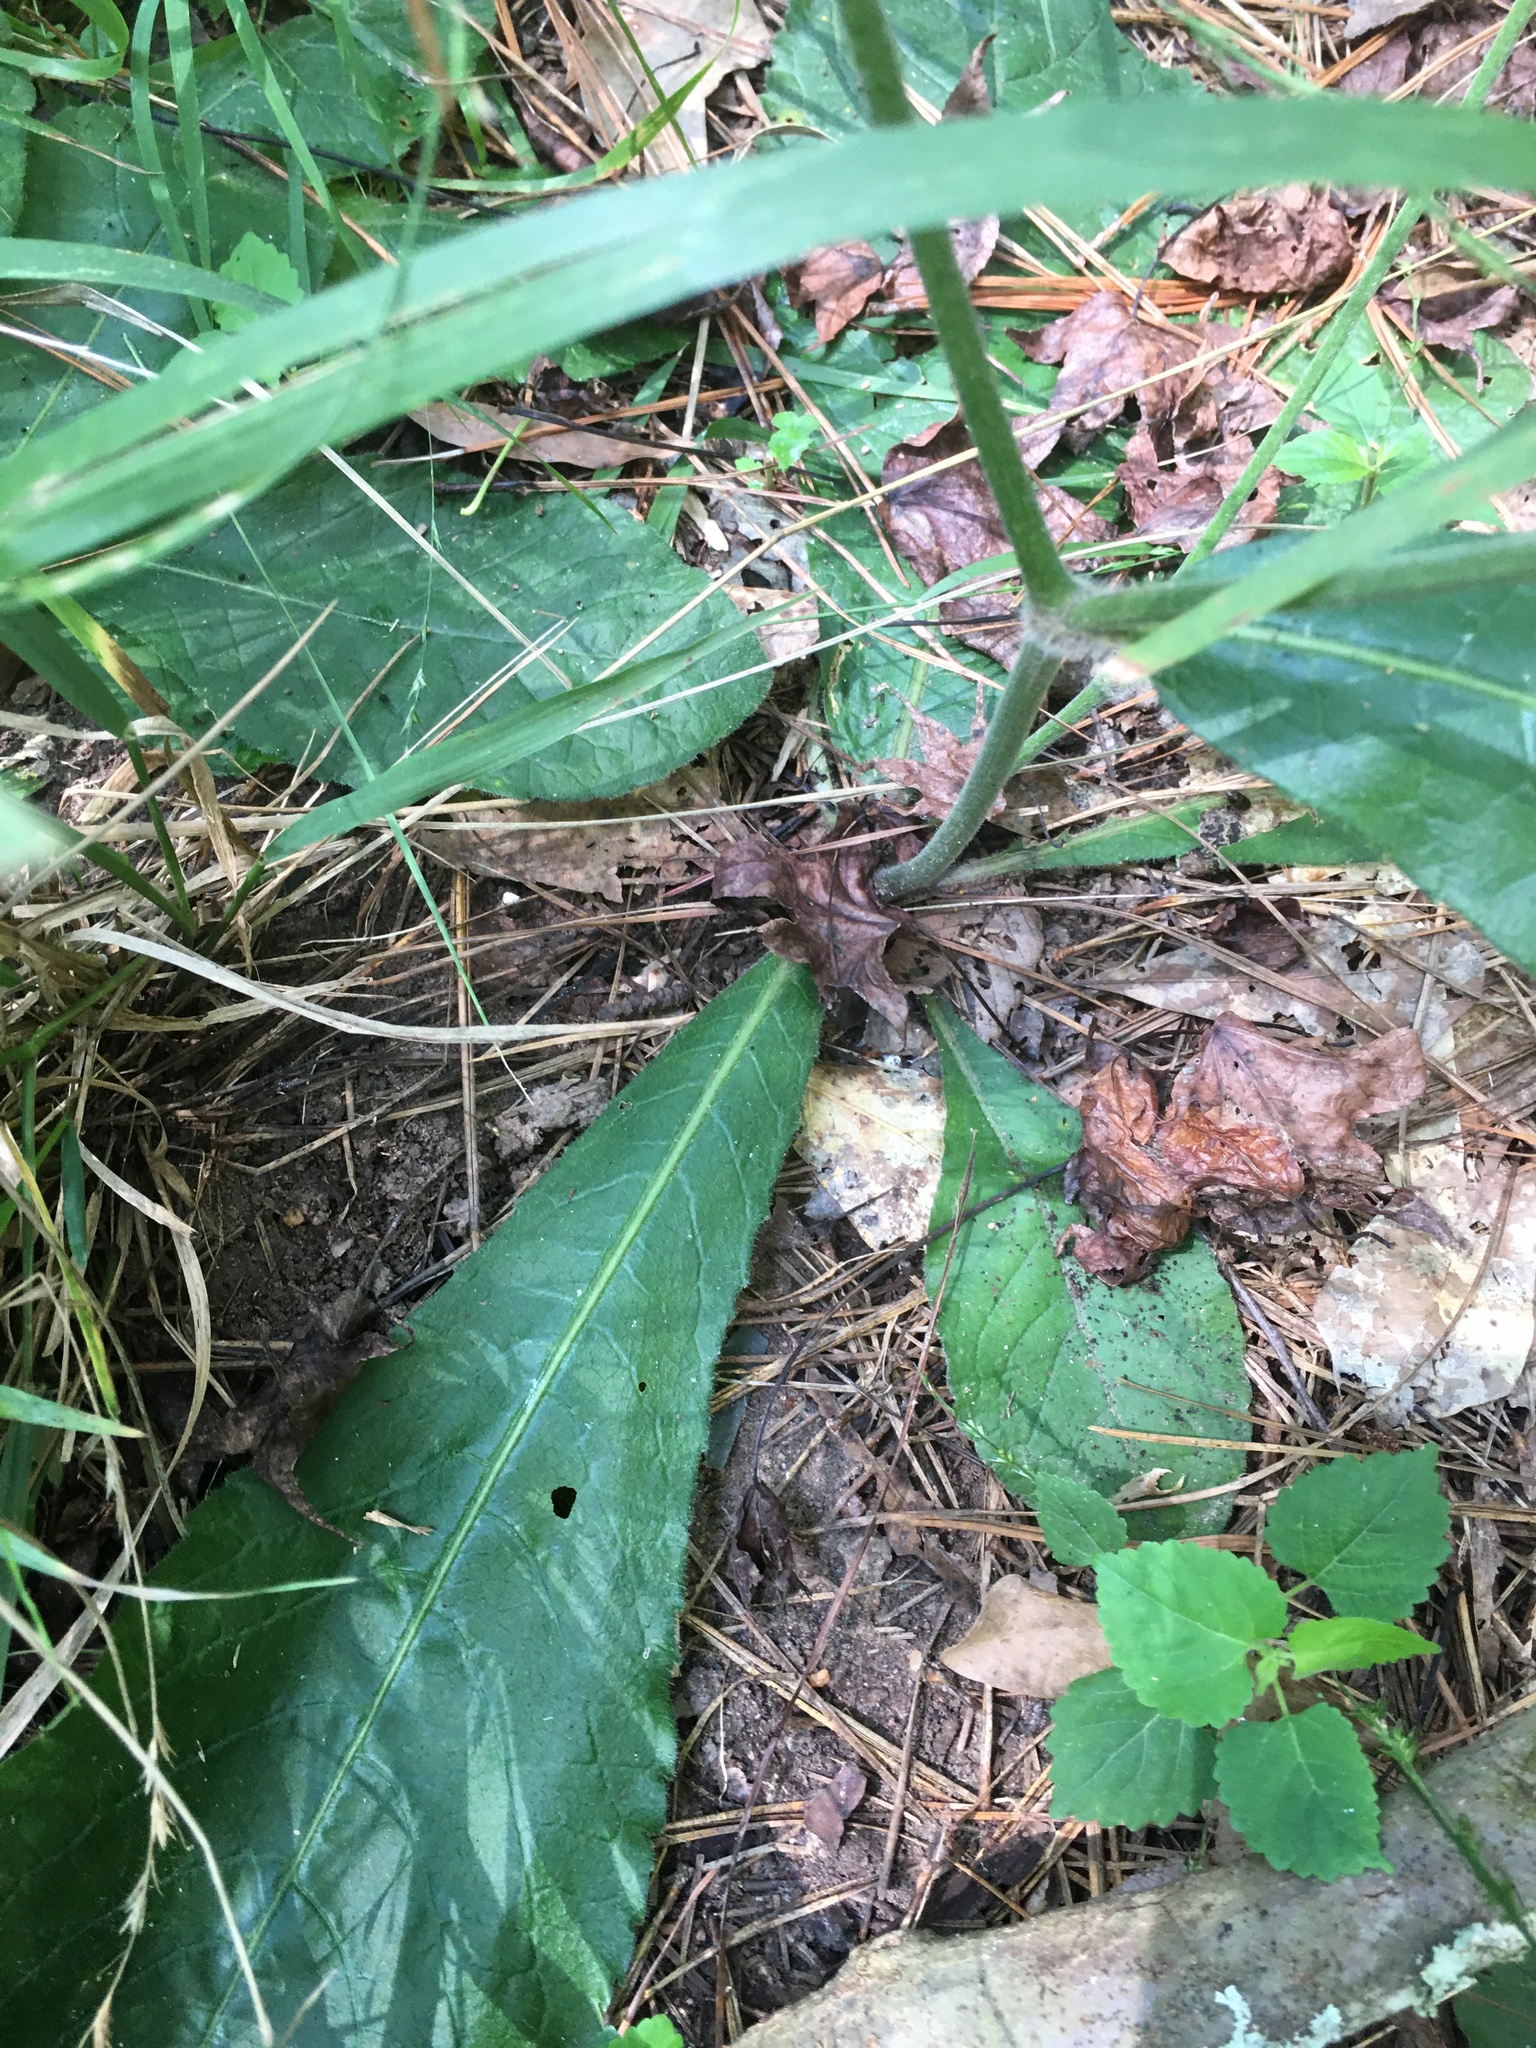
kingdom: Plantae
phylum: Tracheophyta
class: Magnoliopsida
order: Asterales
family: Asteraceae
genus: Elephantopus
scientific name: Elephantopus tomentosus
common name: Tobacco-weed
